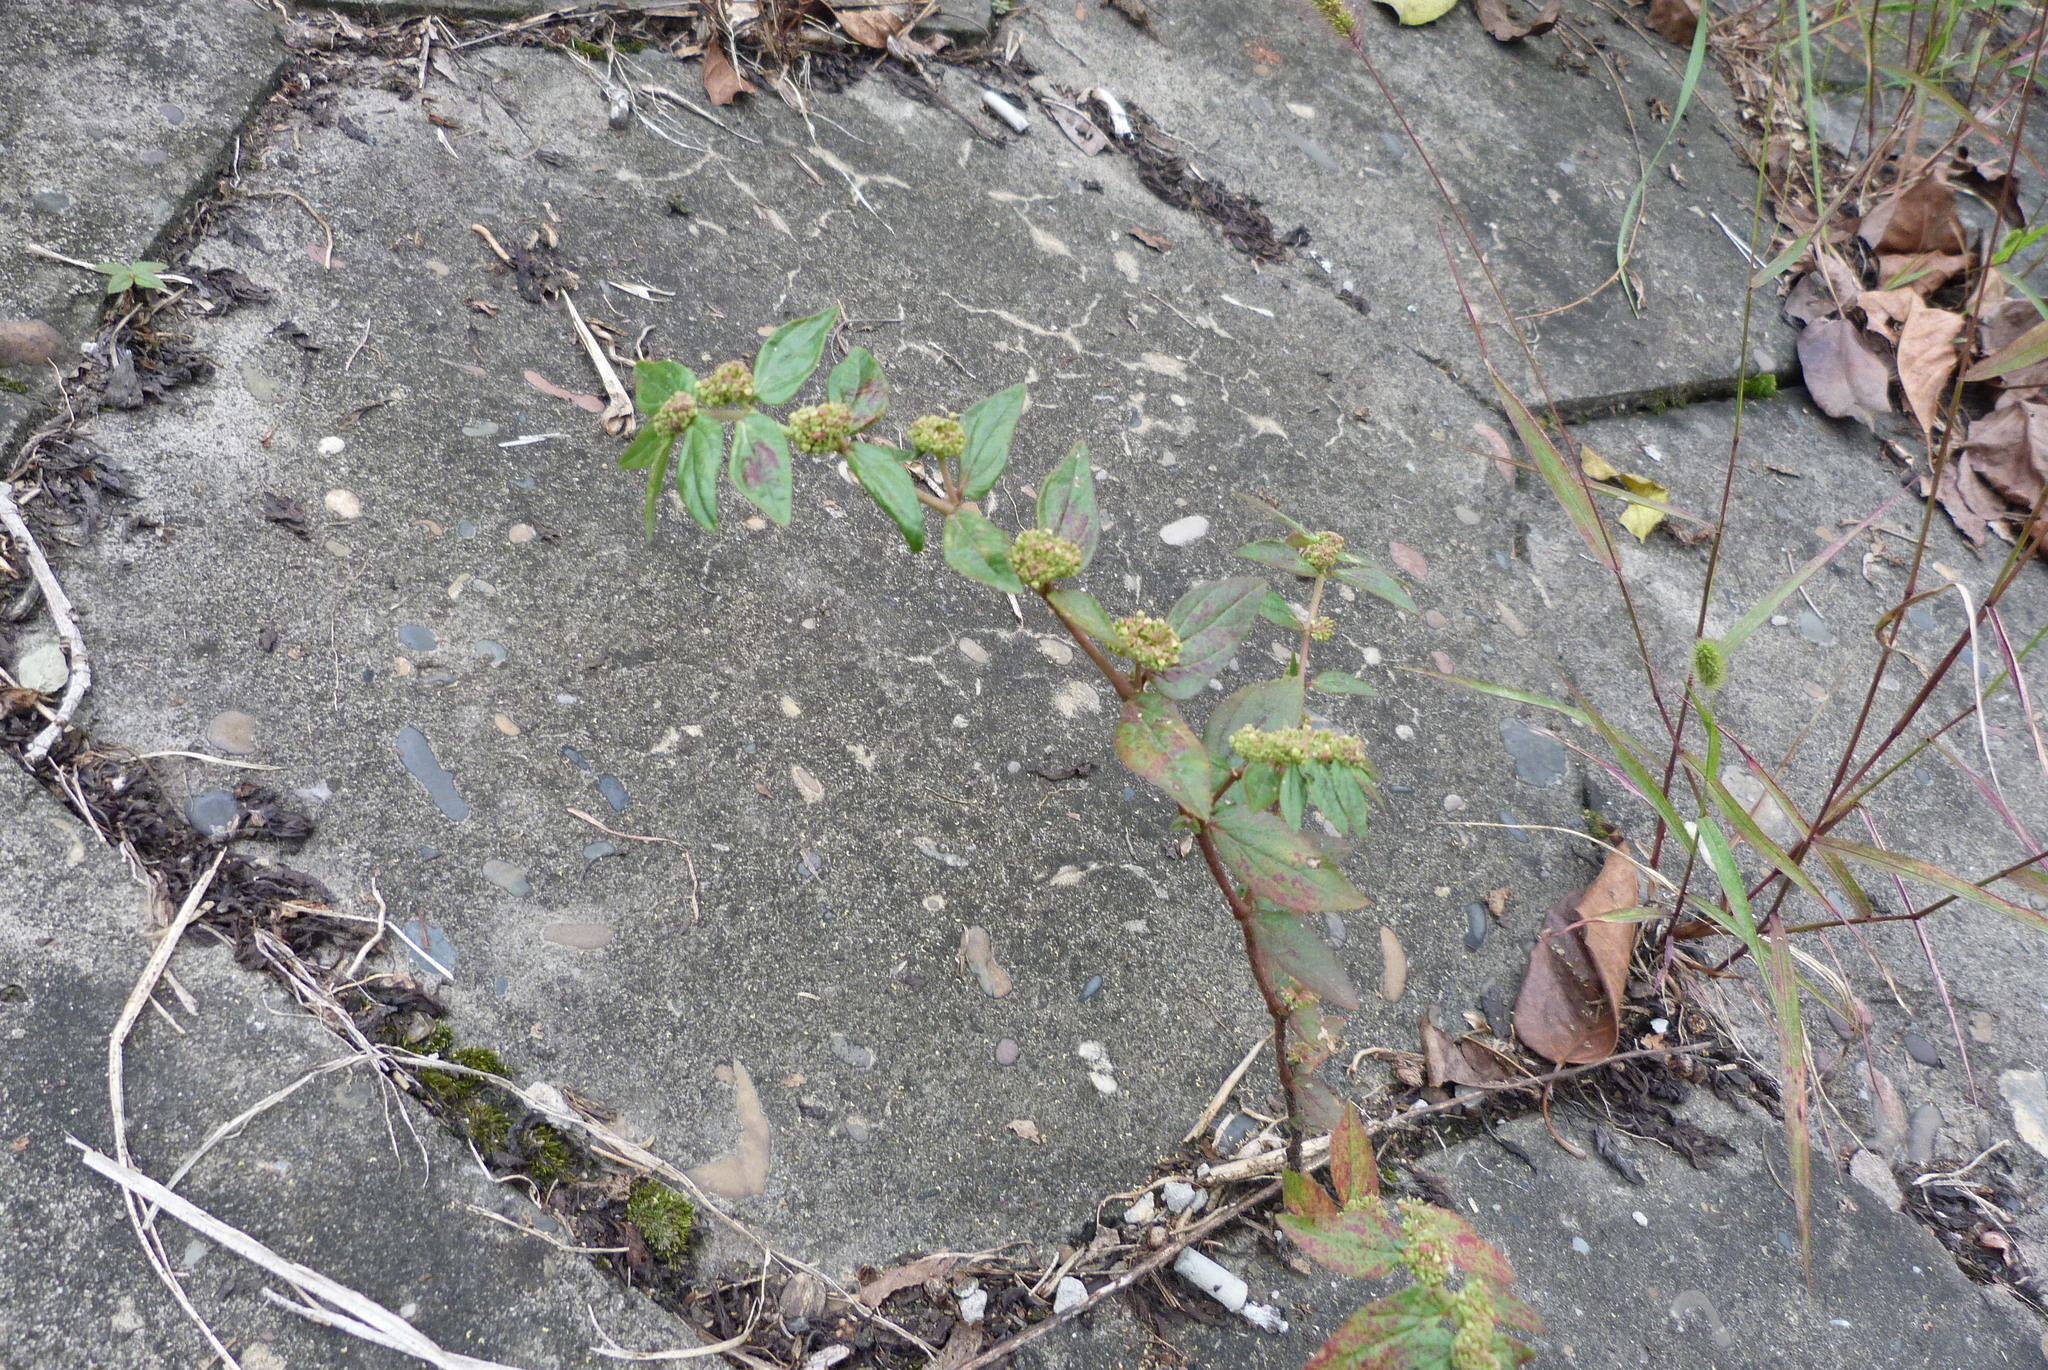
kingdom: Plantae
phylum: Tracheophyta
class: Magnoliopsida
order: Malpighiales
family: Euphorbiaceae
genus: Euphorbia
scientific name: Euphorbia hirta
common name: Pillpod sandmat
